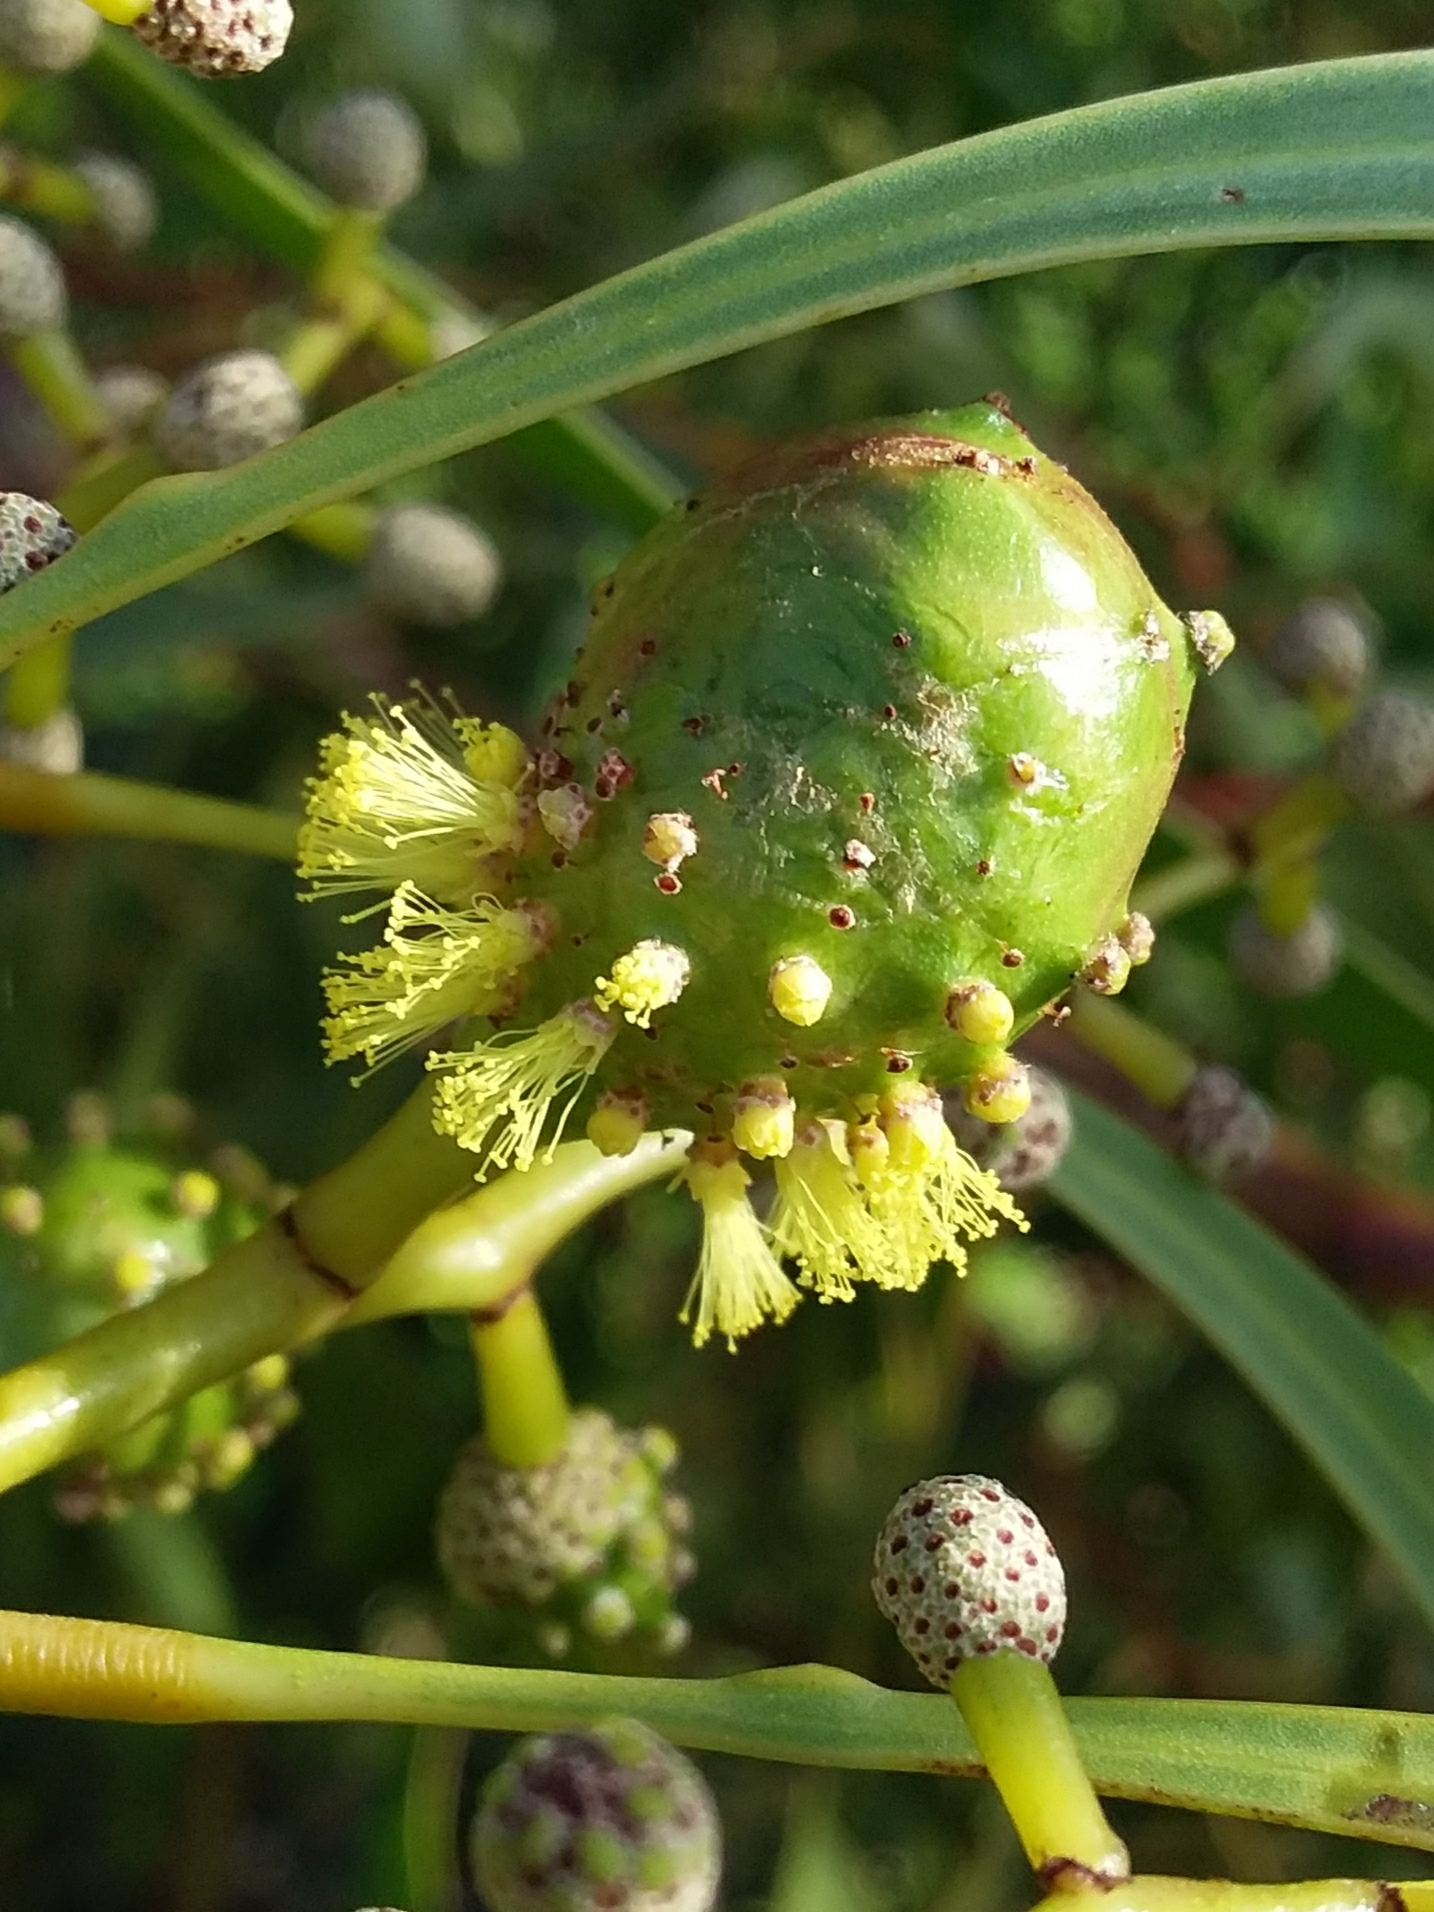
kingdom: Animalia
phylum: Arthropoda
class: Insecta
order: Hymenoptera
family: Pteromalidae
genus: Trichilogaster
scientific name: Trichilogaster signiventris
